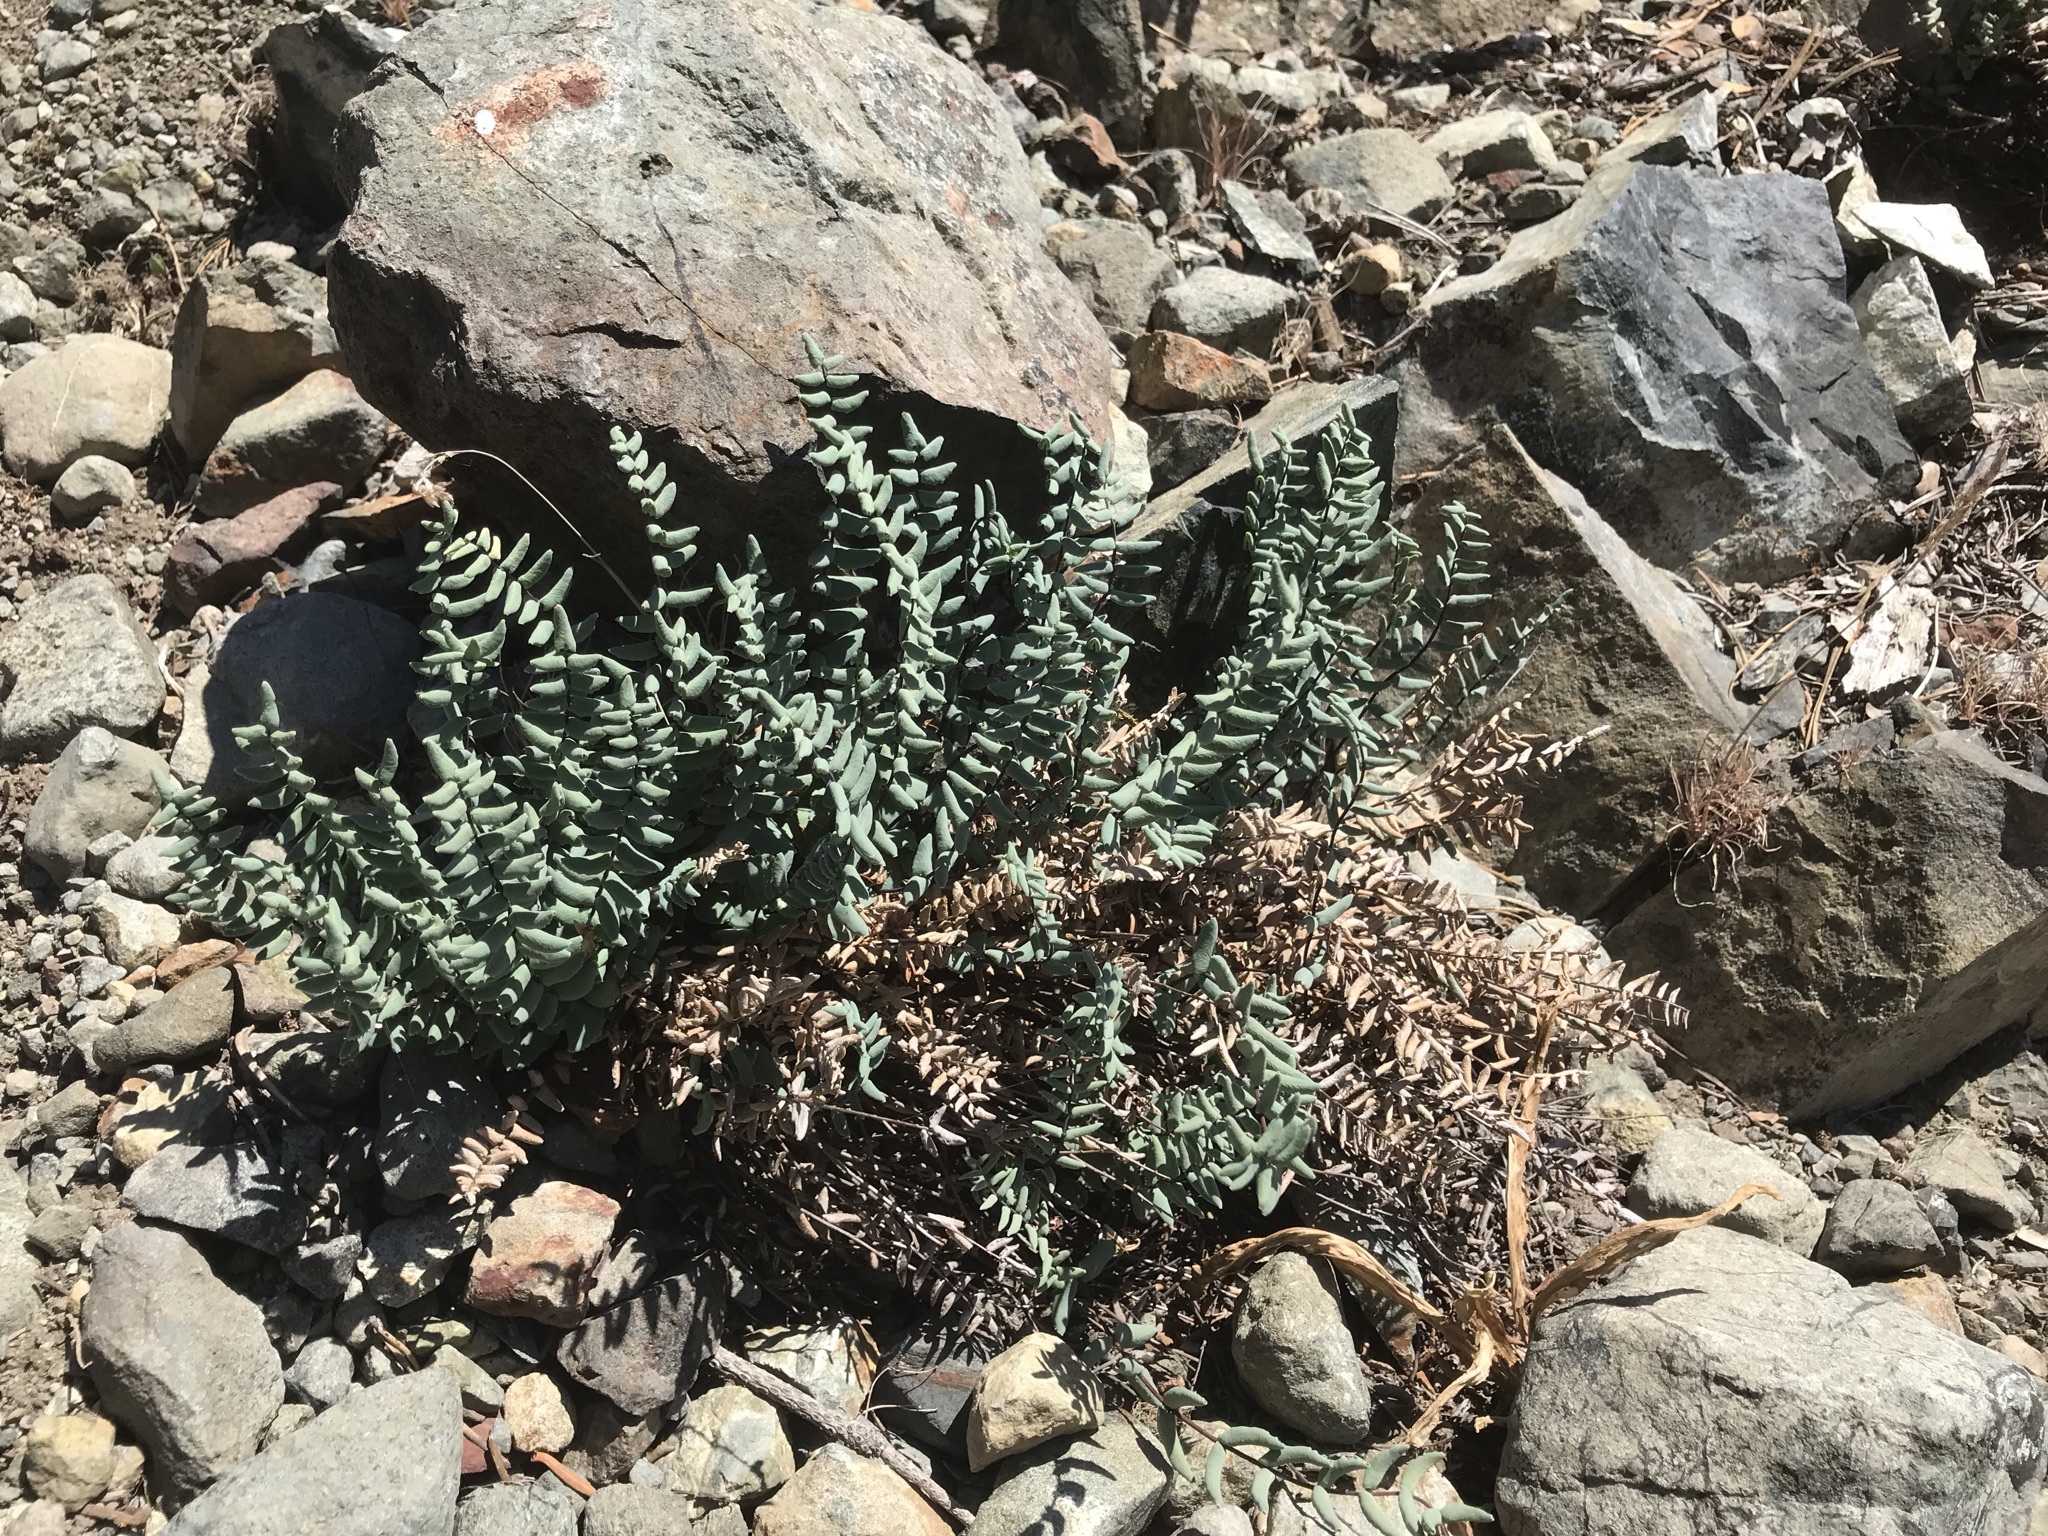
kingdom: Plantae
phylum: Tracheophyta
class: Polypodiopsida
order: Polypodiales
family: Pteridaceae
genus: Pellaea
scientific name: Pellaea bridgesii
